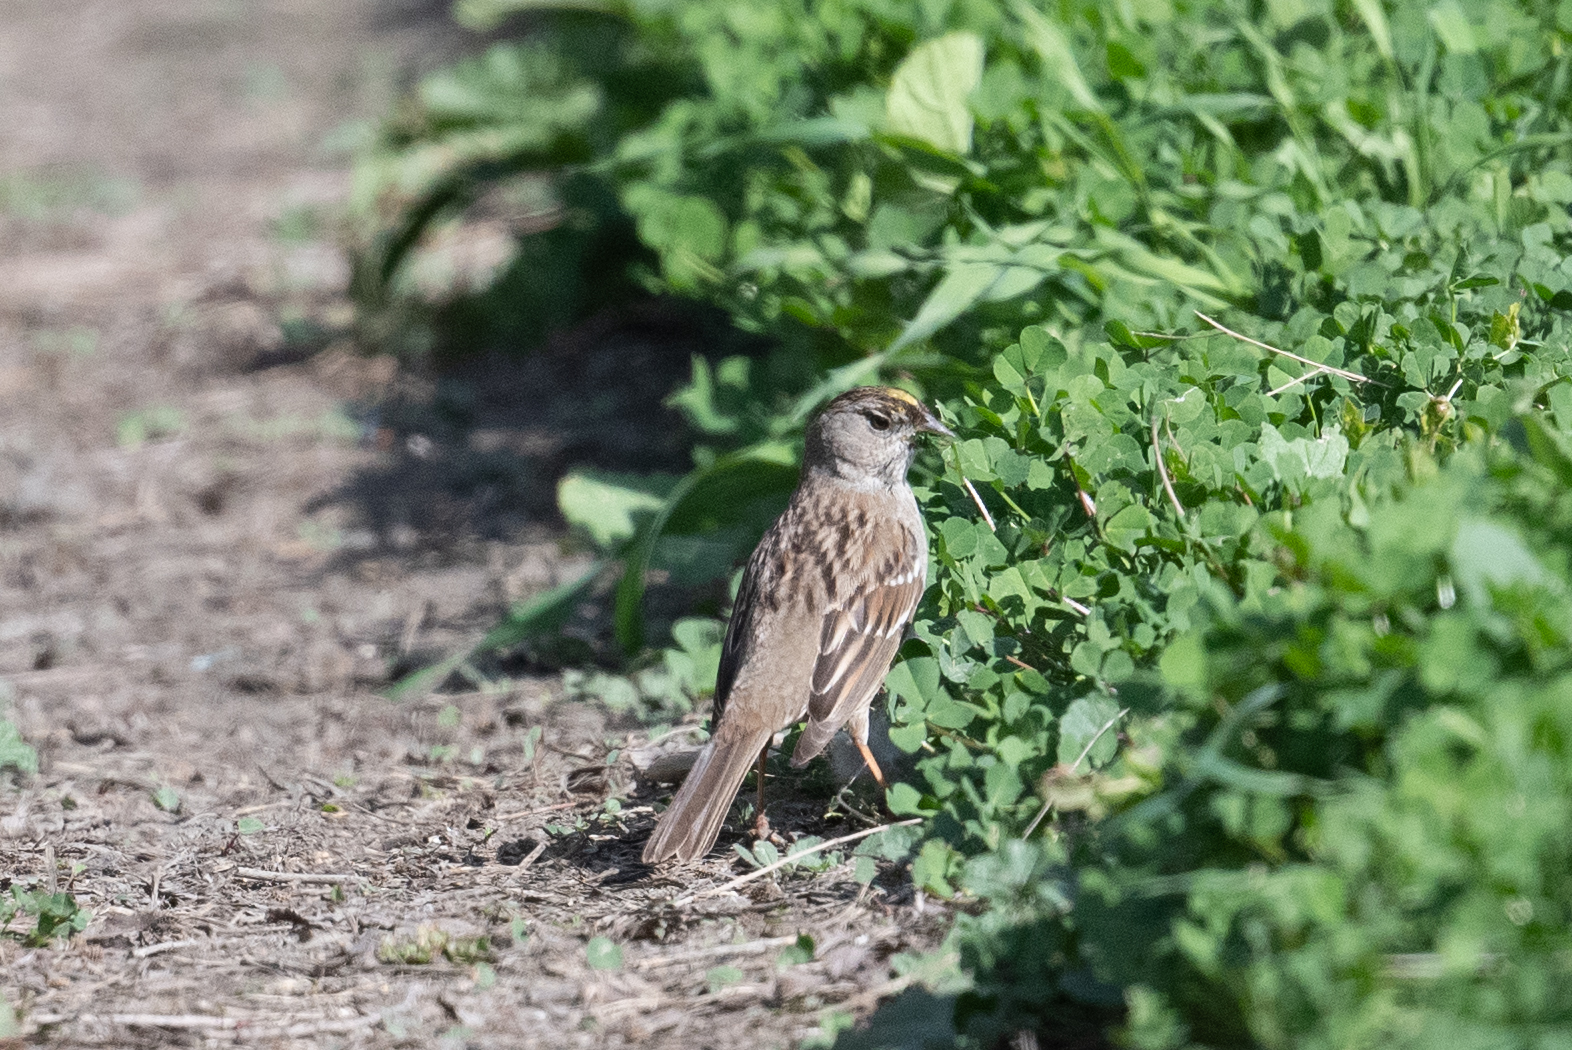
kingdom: Animalia
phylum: Chordata
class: Aves
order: Passeriformes
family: Passerellidae
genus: Zonotrichia
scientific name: Zonotrichia atricapilla
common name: Golden-crowned sparrow
